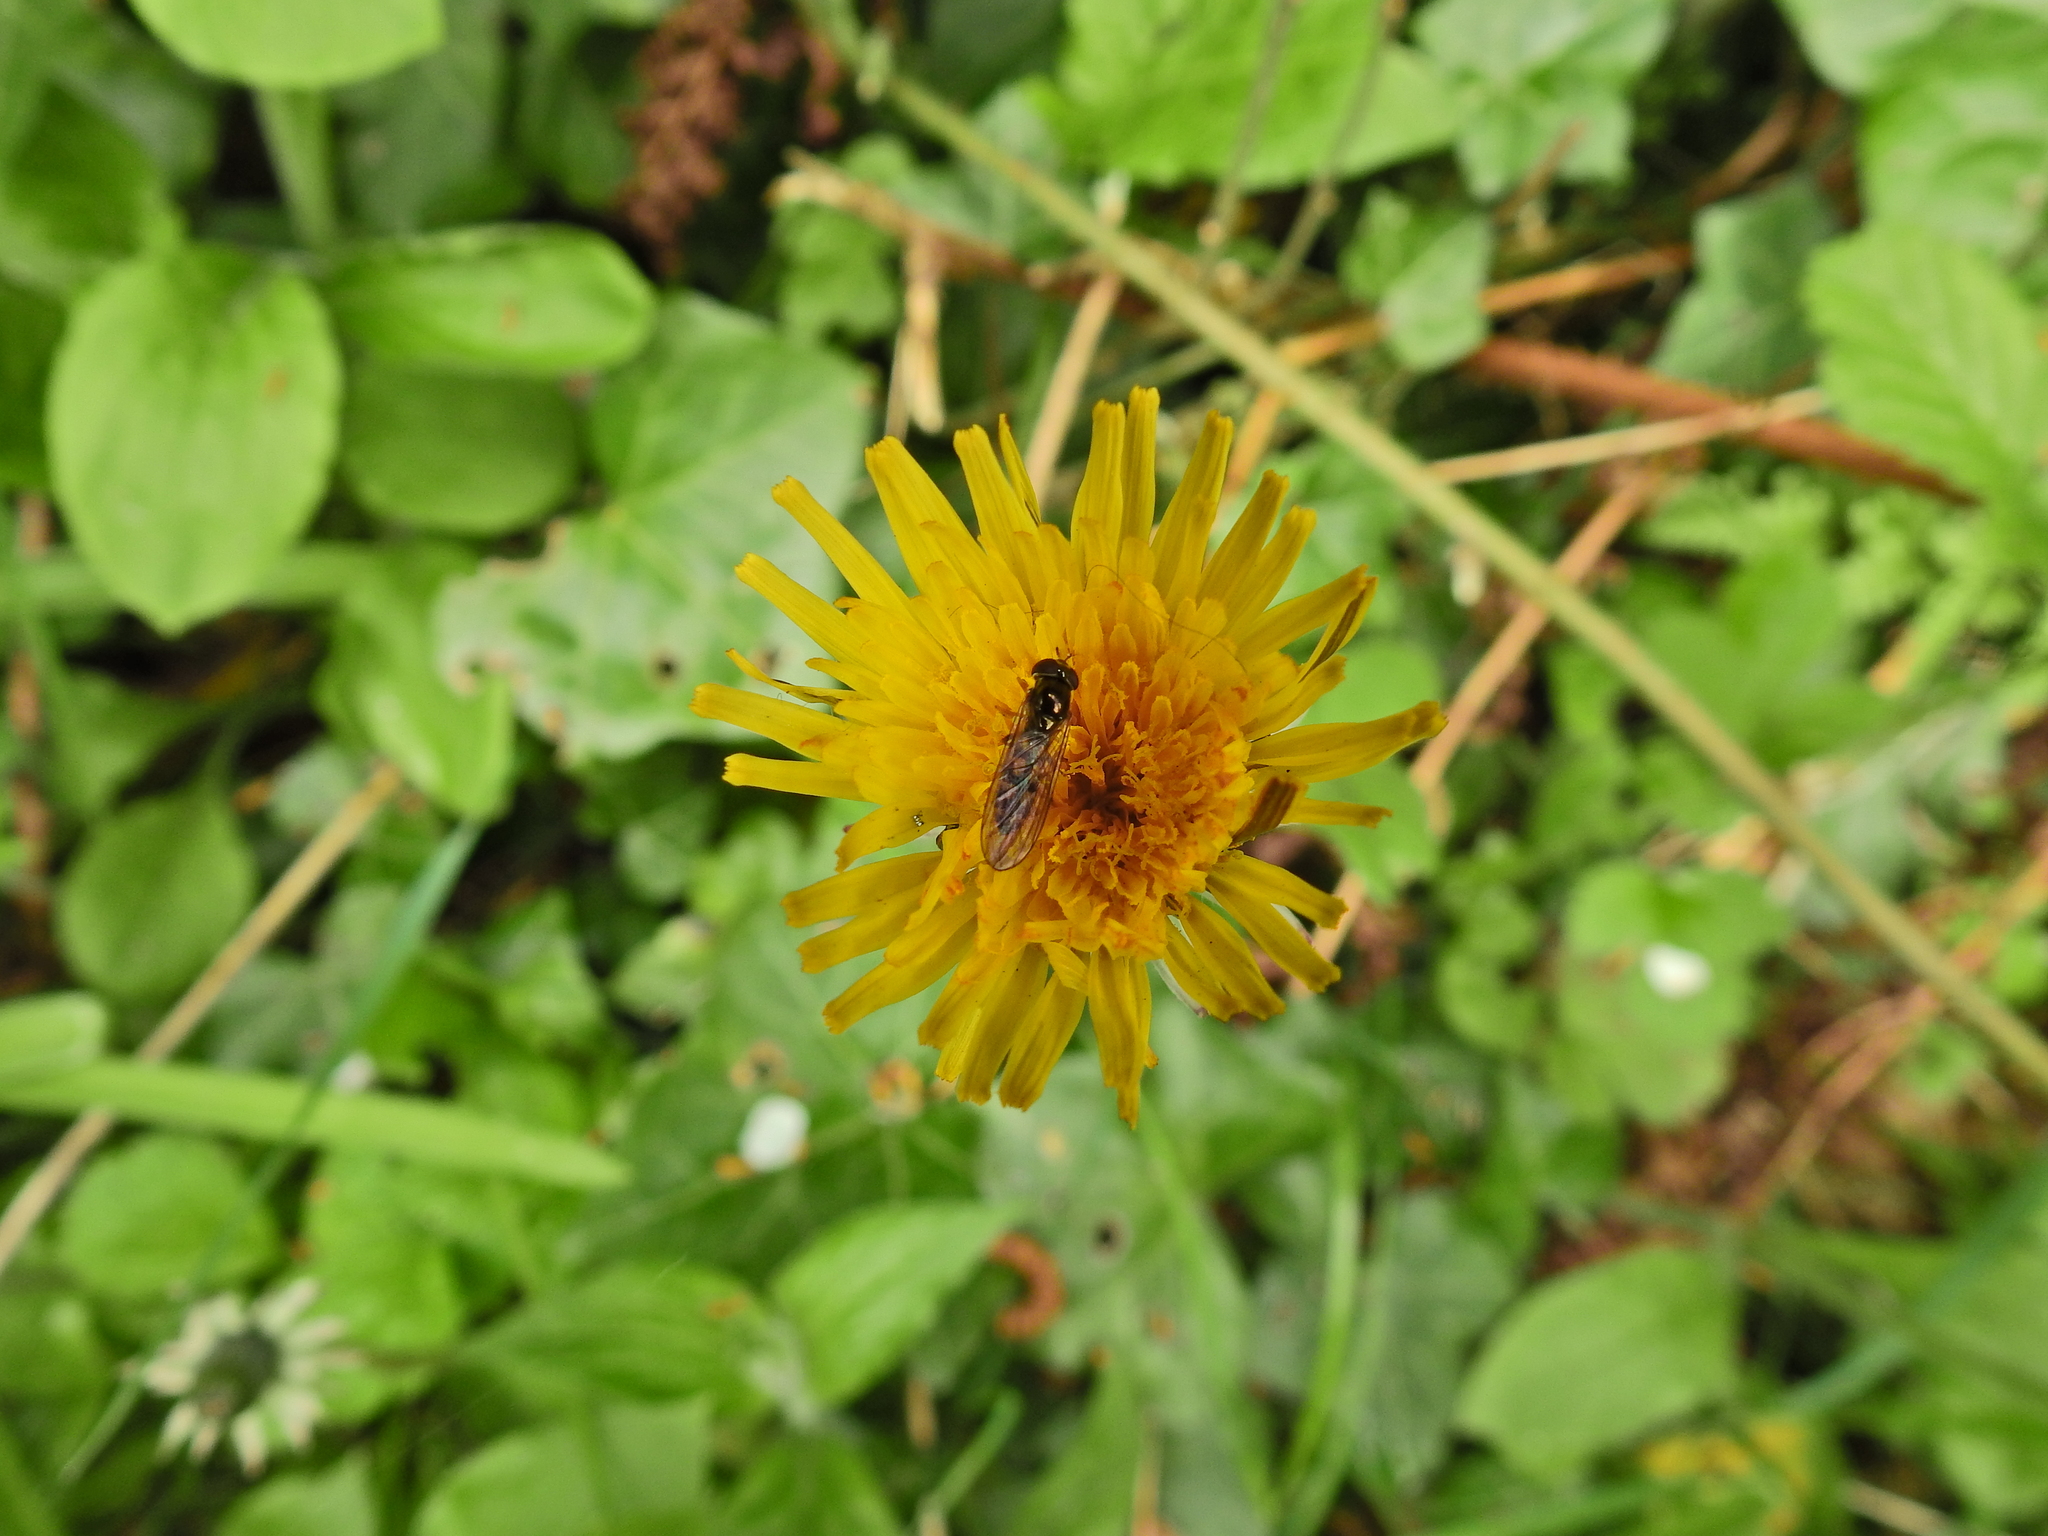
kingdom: Animalia
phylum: Arthropoda
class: Insecta
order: Diptera
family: Syrphidae
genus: Melanostoma
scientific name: Melanostoma scalare
